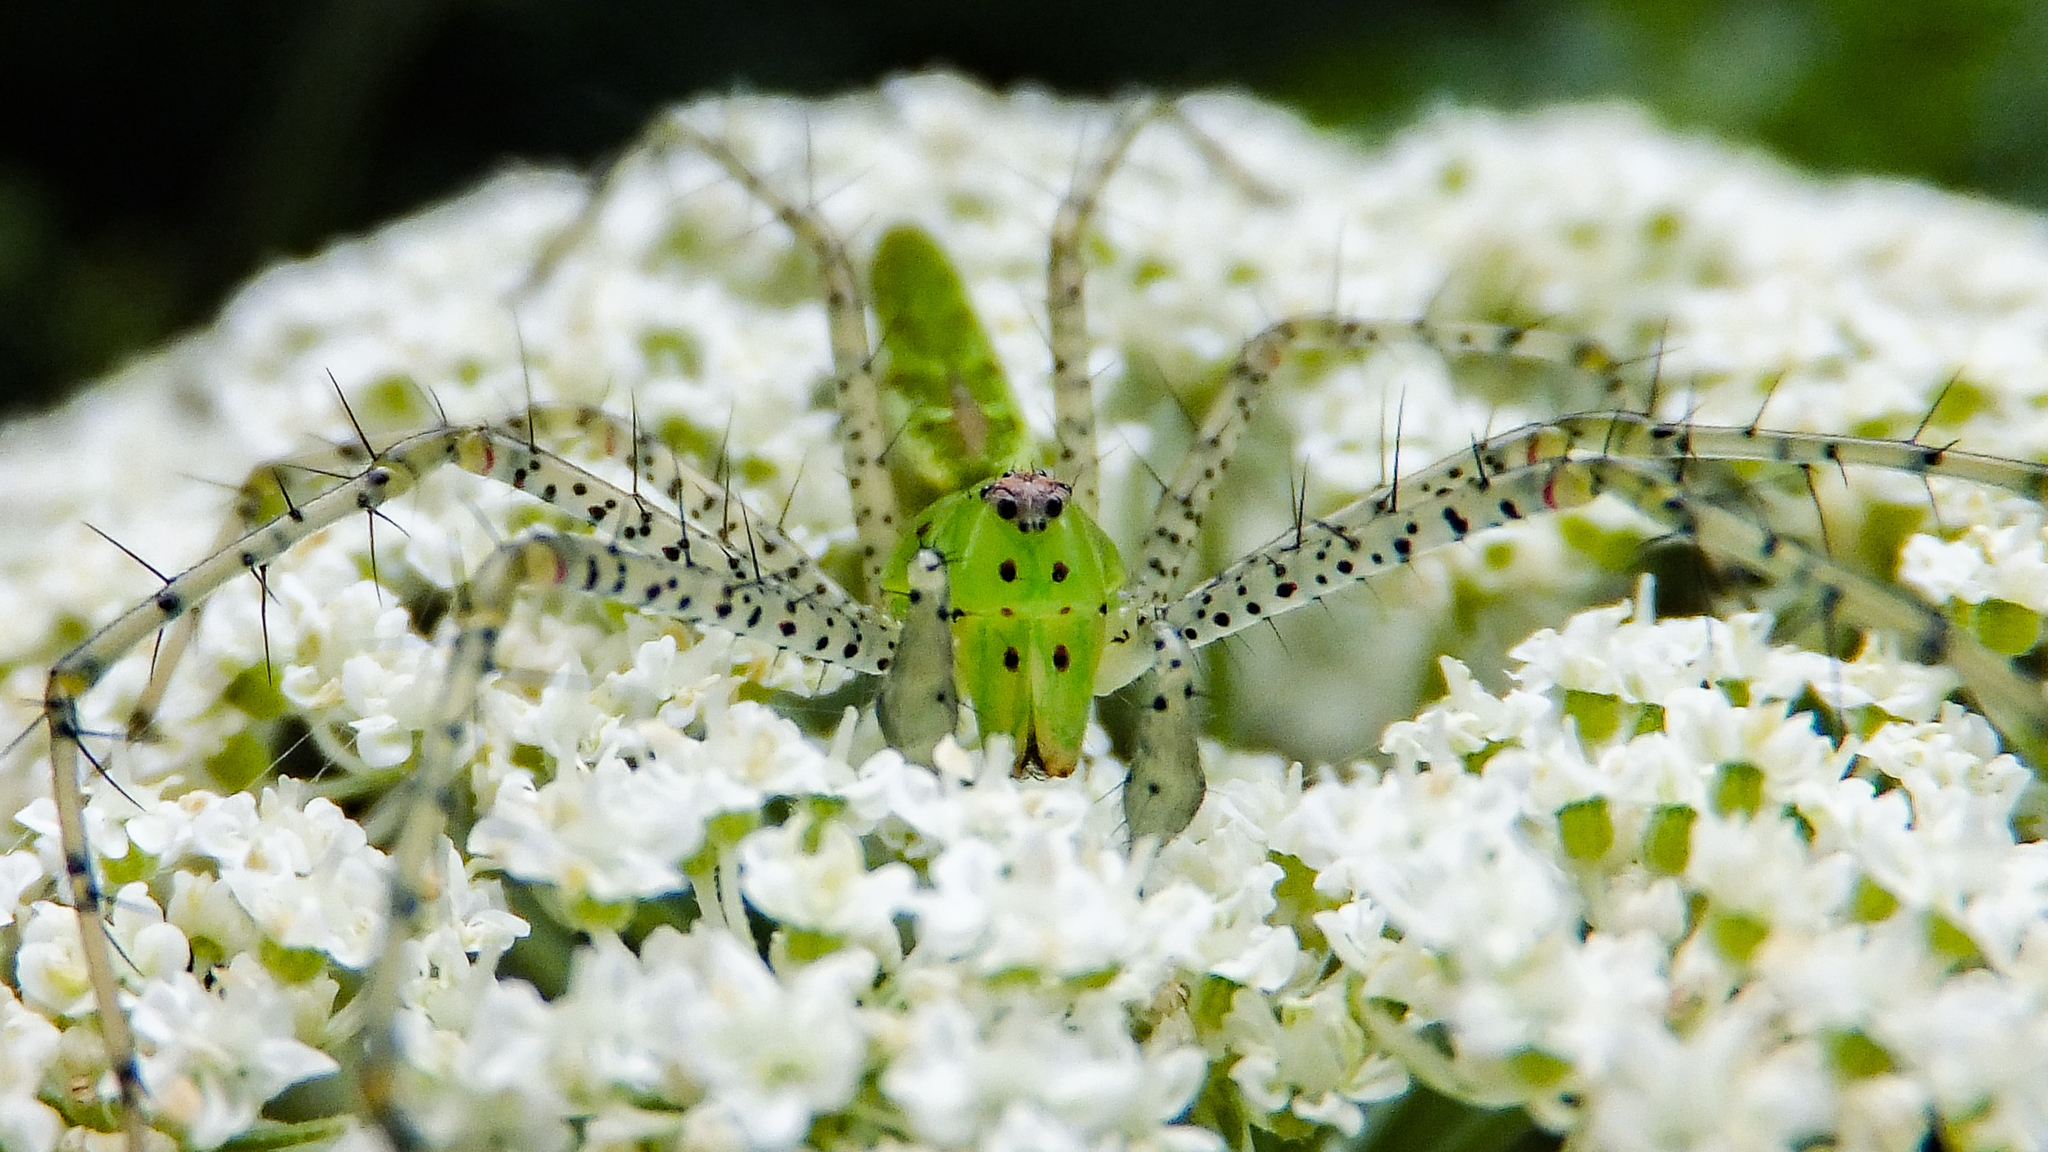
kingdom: Animalia
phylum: Arthropoda
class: Arachnida
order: Araneae
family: Oxyopidae
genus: Peucetia
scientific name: Peucetia viridans
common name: Lynx spiders
